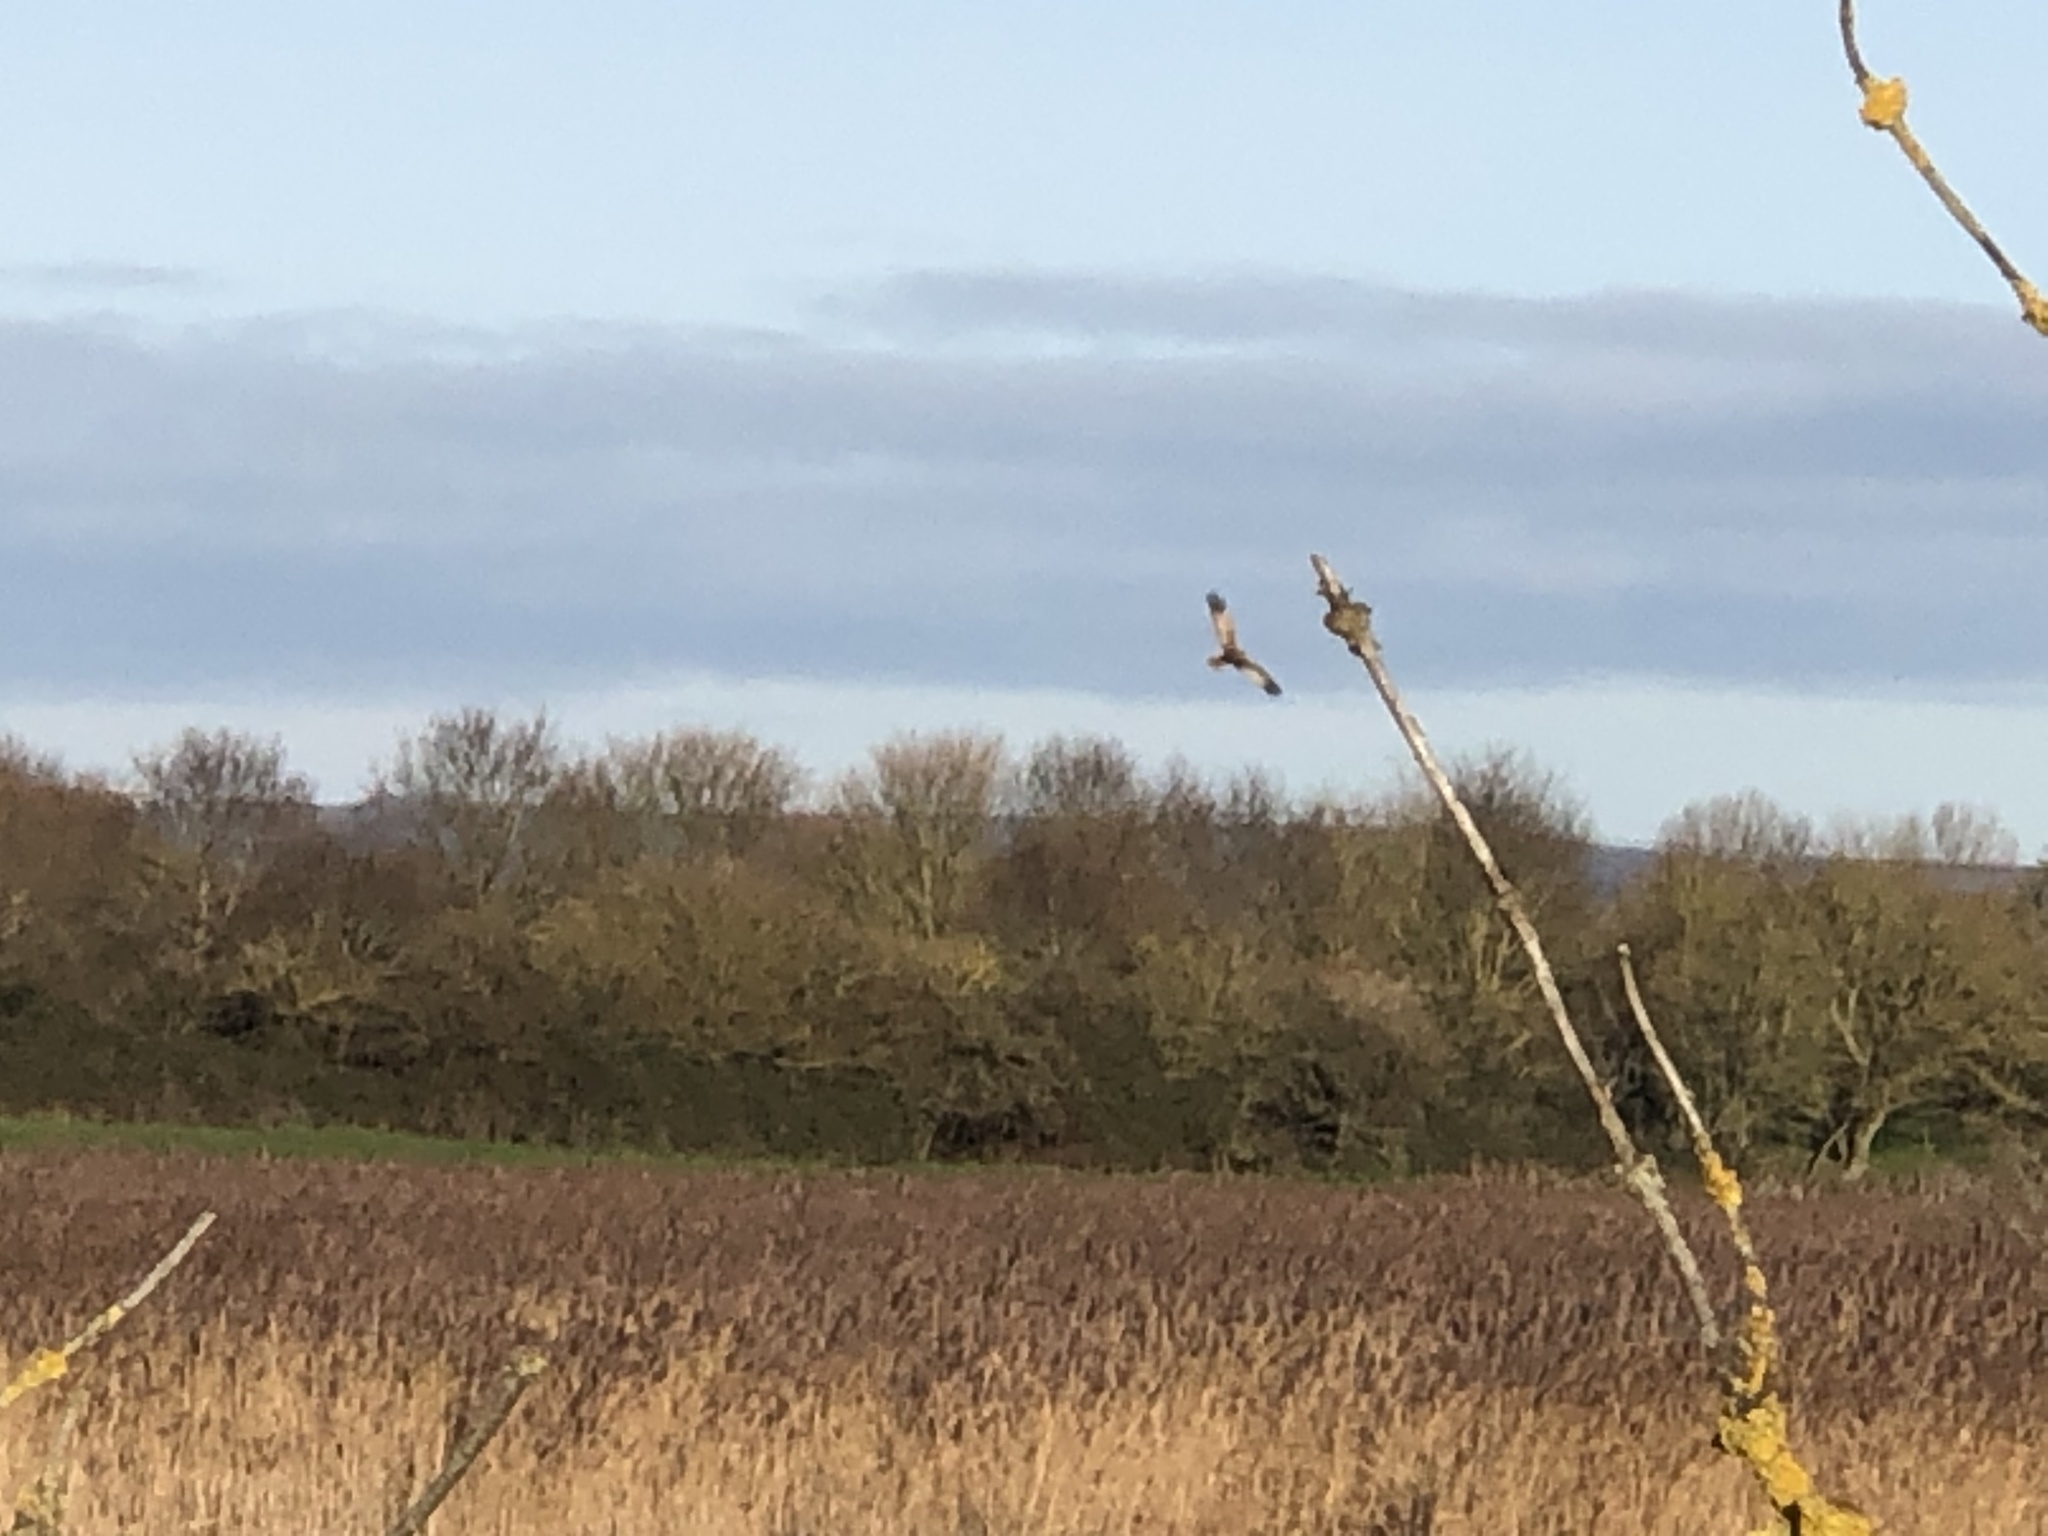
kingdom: Animalia
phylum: Chordata
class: Aves
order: Accipitriformes
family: Accipitridae
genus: Circus
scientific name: Circus aeruginosus
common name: Western marsh harrier
